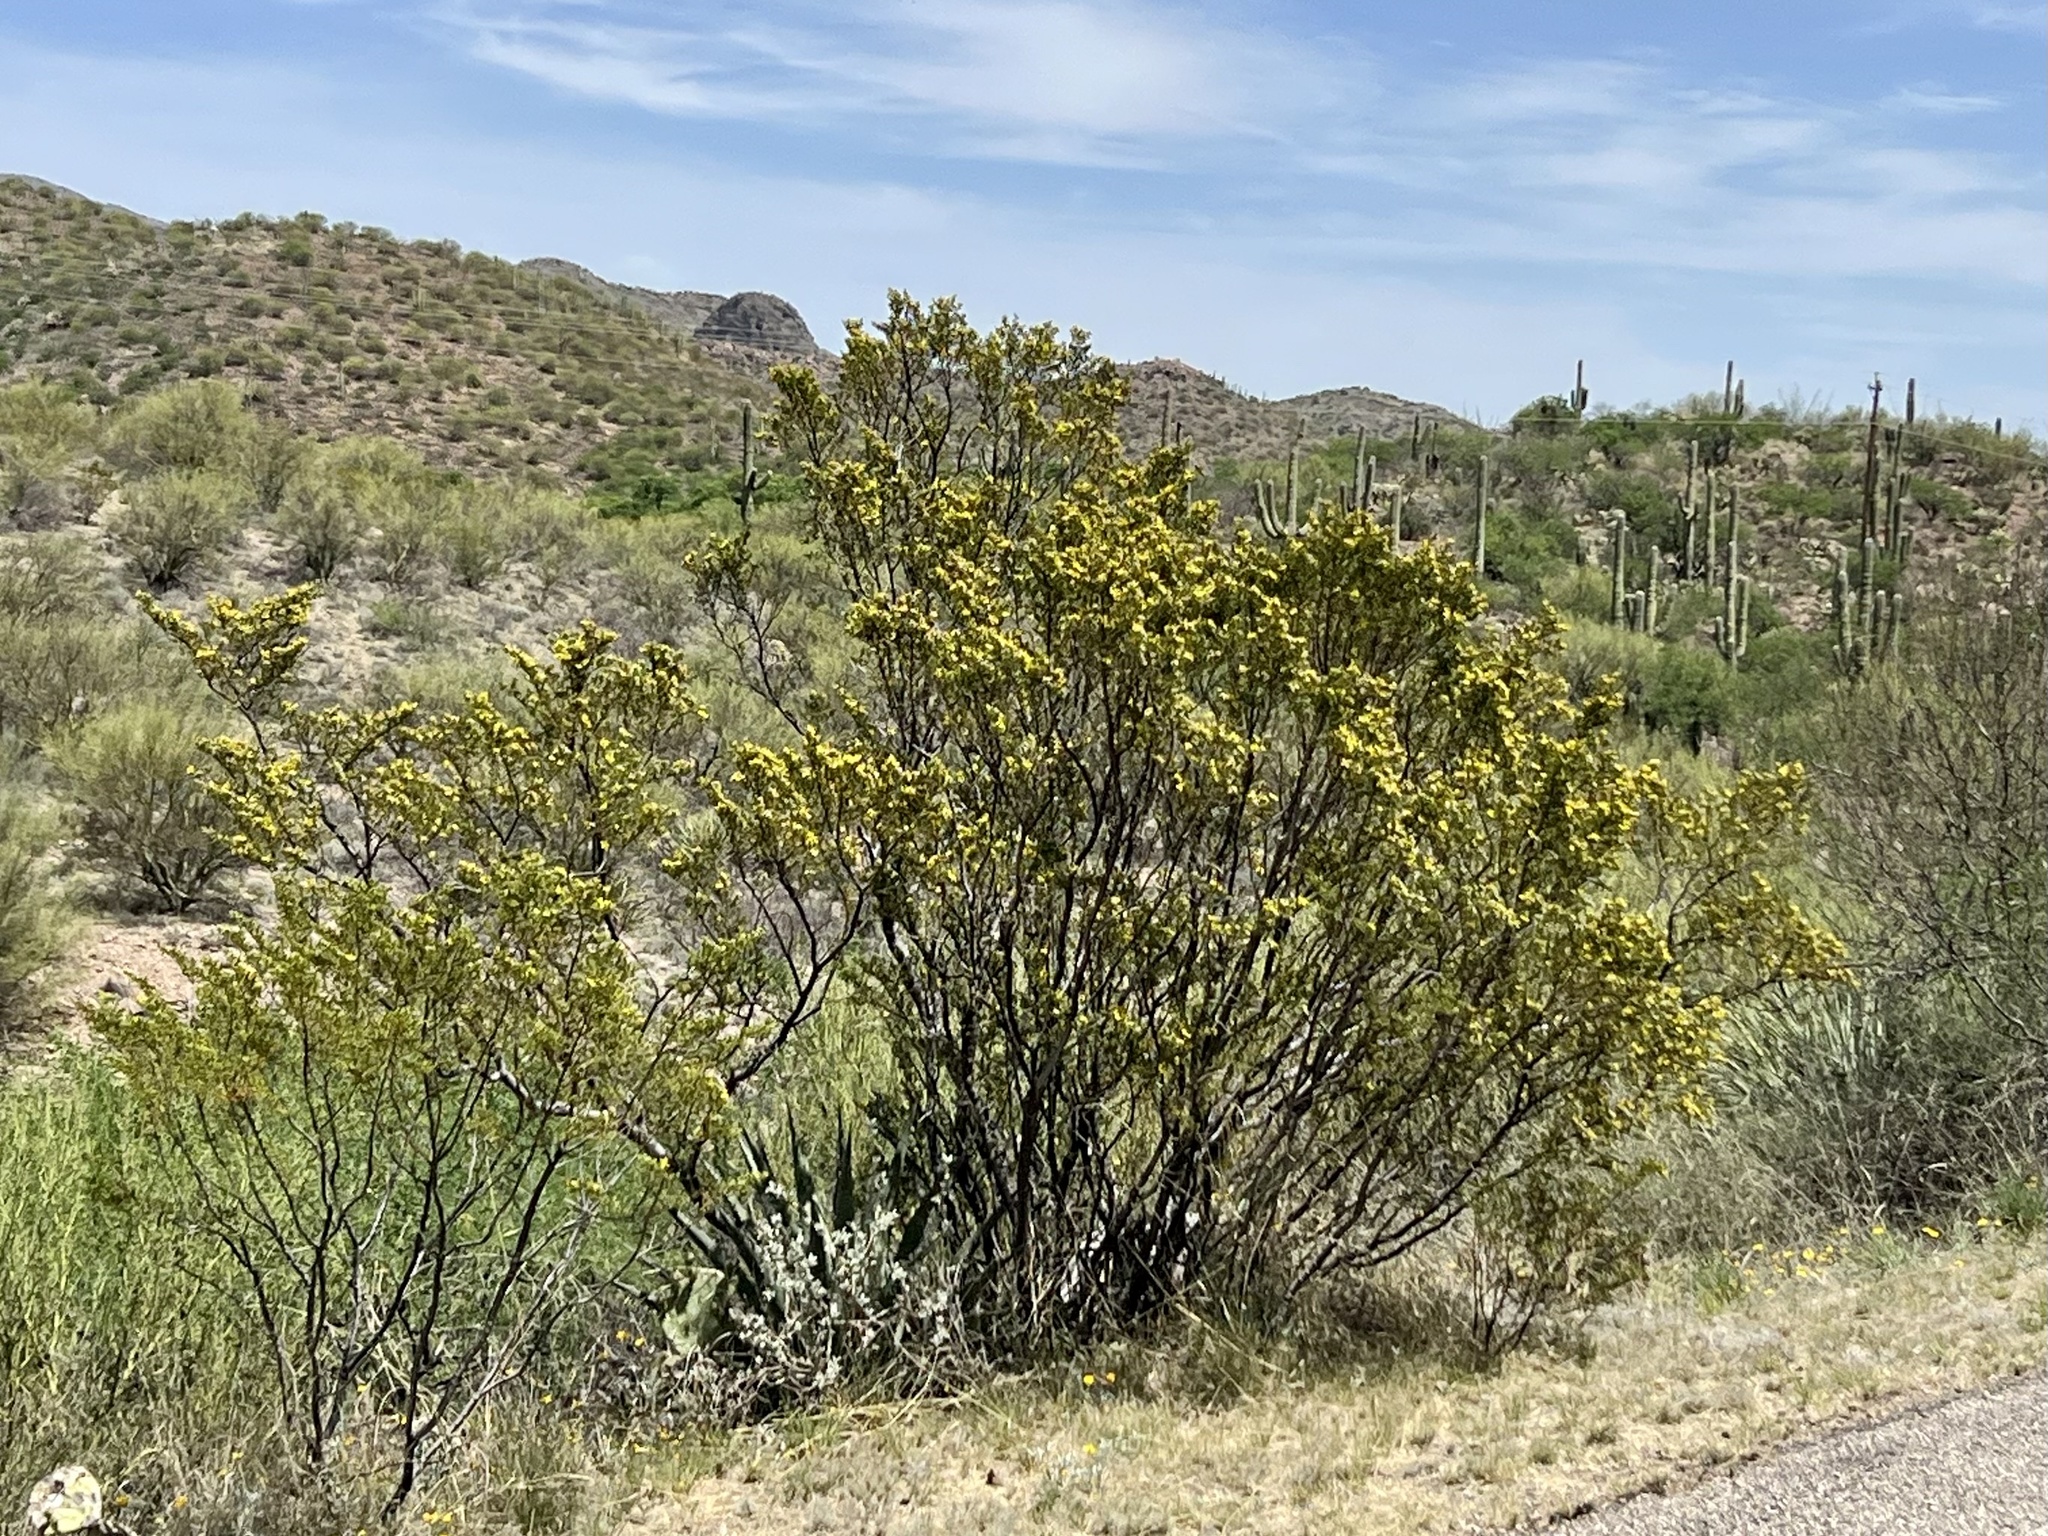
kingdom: Plantae
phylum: Tracheophyta
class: Magnoliopsida
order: Zygophyllales
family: Zygophyllaceae
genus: Larrea
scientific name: Larrea tridentata
